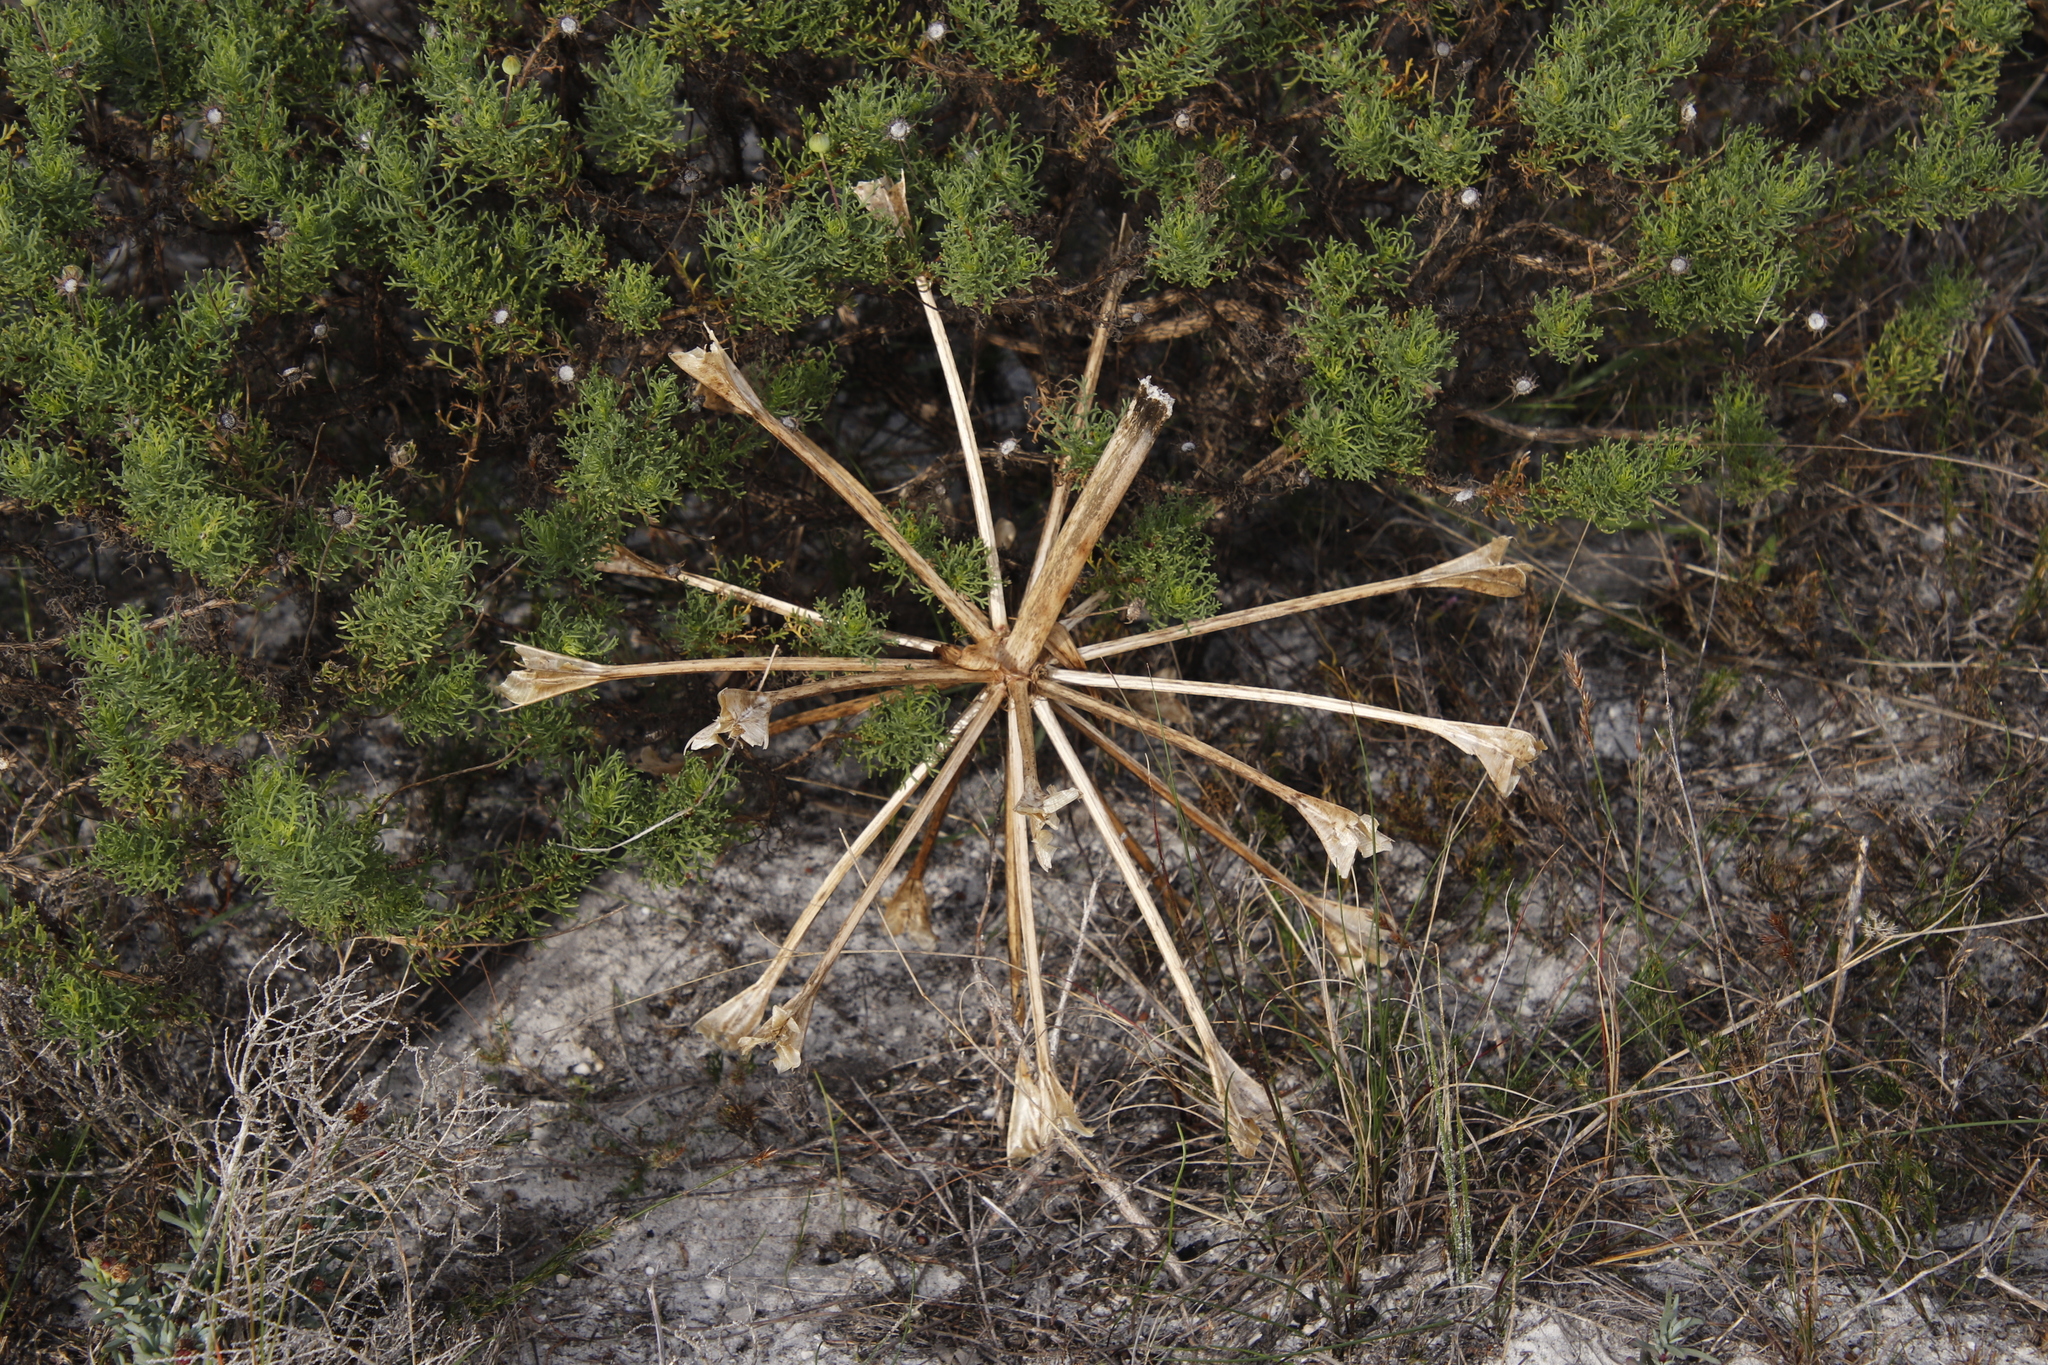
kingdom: Plantae
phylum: Tracheophyta
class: Liliopsida
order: Asparagales
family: Amaryllidaceae
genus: Brunsvigia
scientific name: Brunsvigia orientalis
